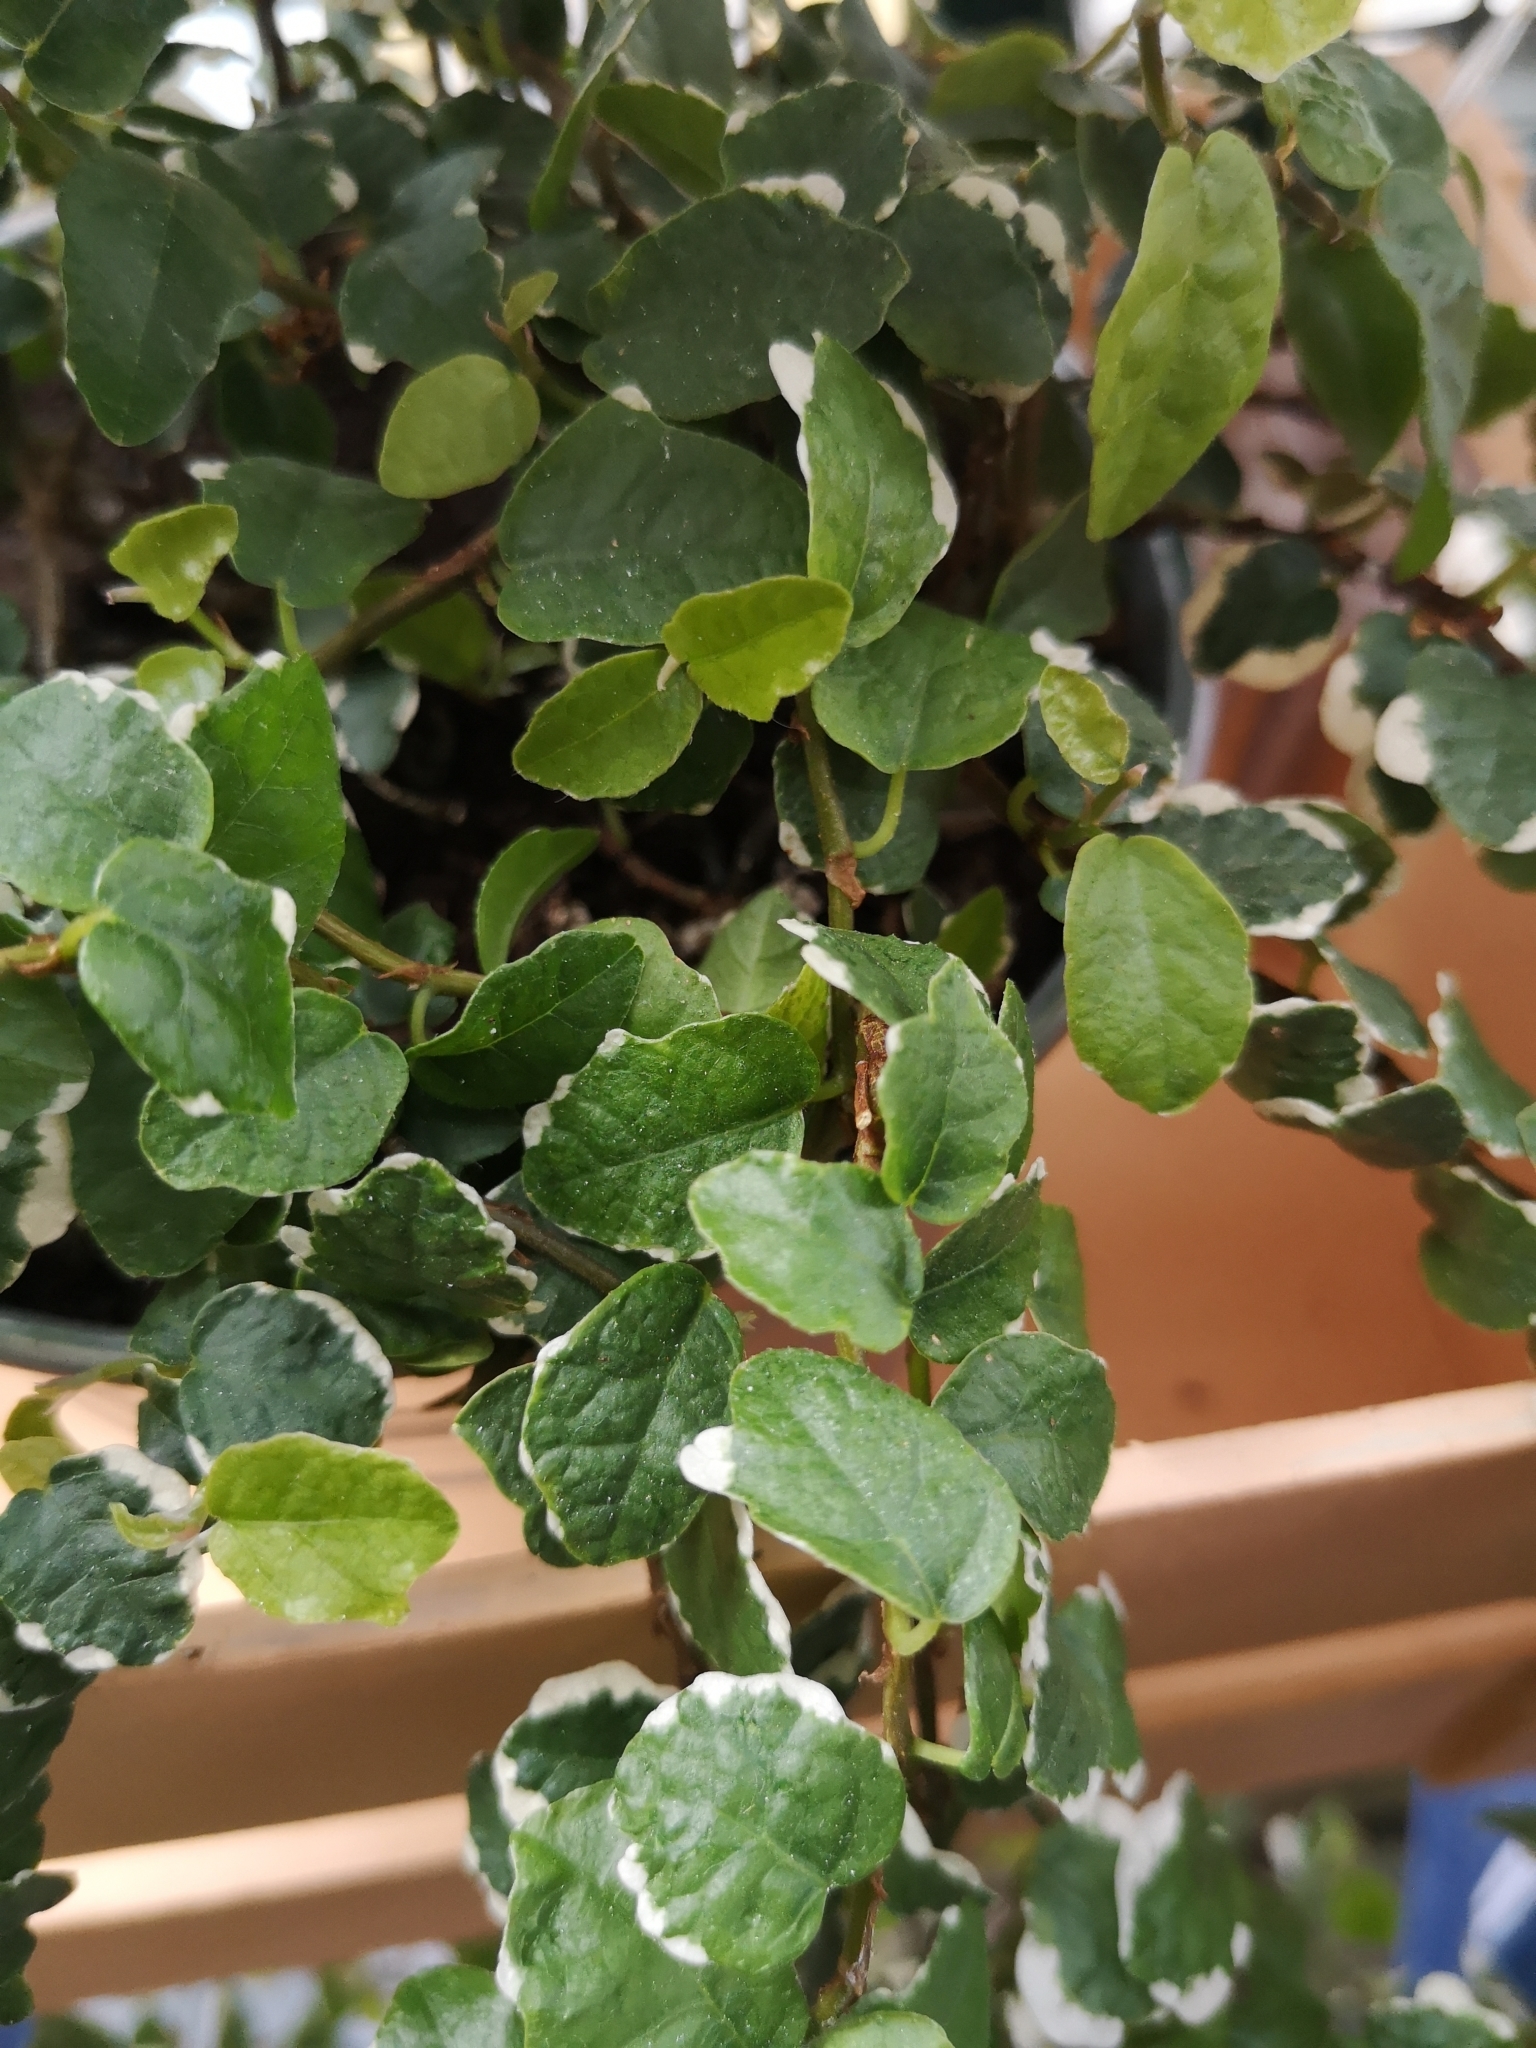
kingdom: Plantae
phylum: Tracheophyta
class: Magnoliopsida
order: Rosales
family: Moraceae
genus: Ficus
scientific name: Ficus pumila
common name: Climbingfig
